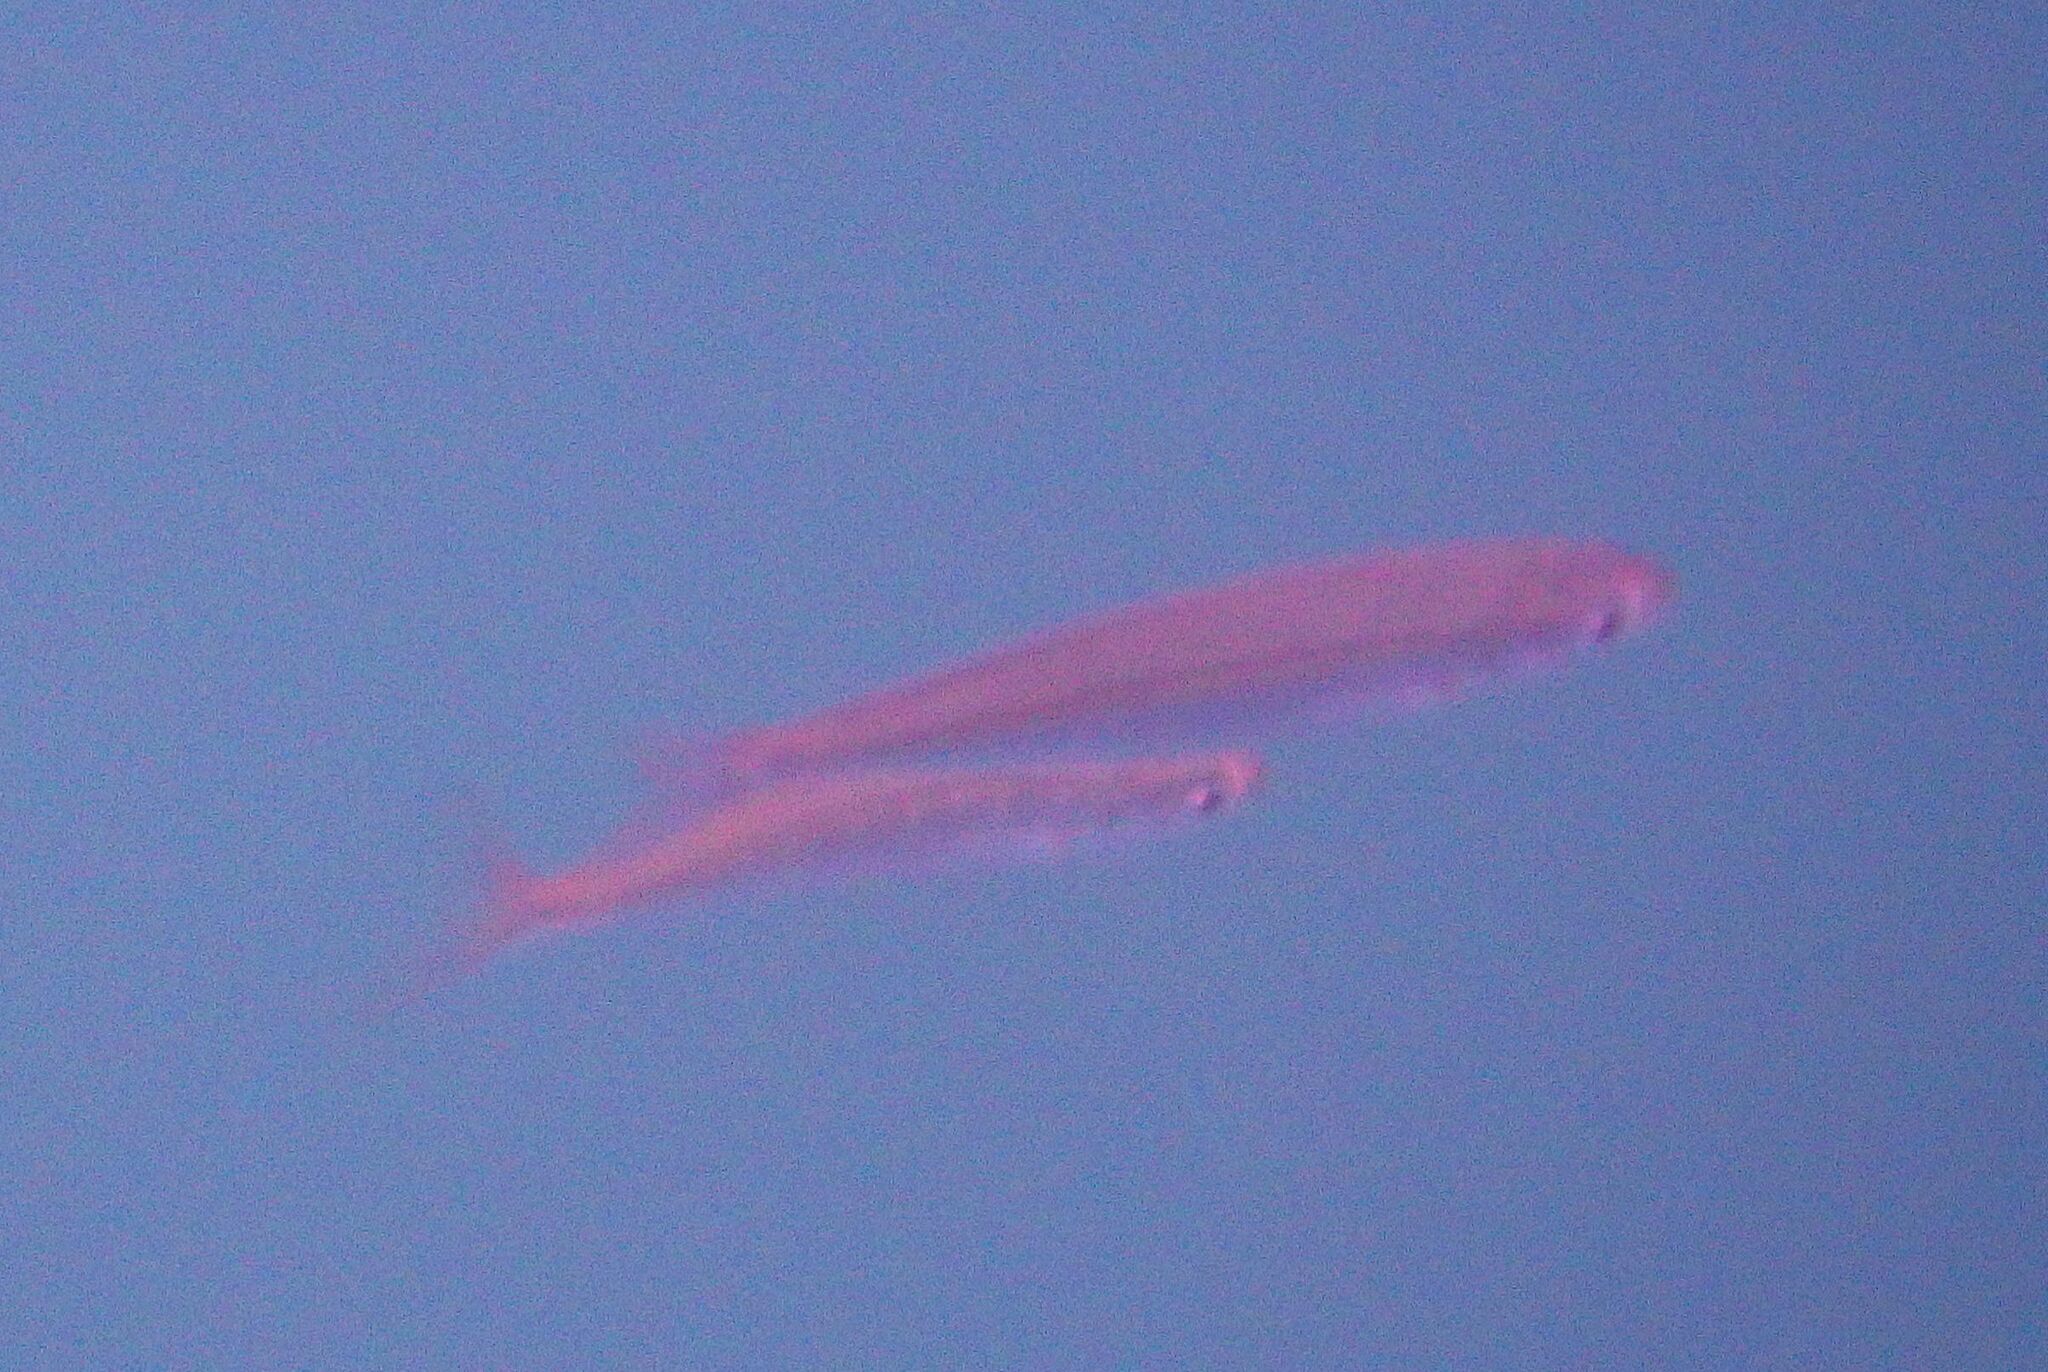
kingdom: Animalia
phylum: Chordata
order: Perciformes
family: Sparidae
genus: Boops
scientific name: Boops boops
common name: Bogue
